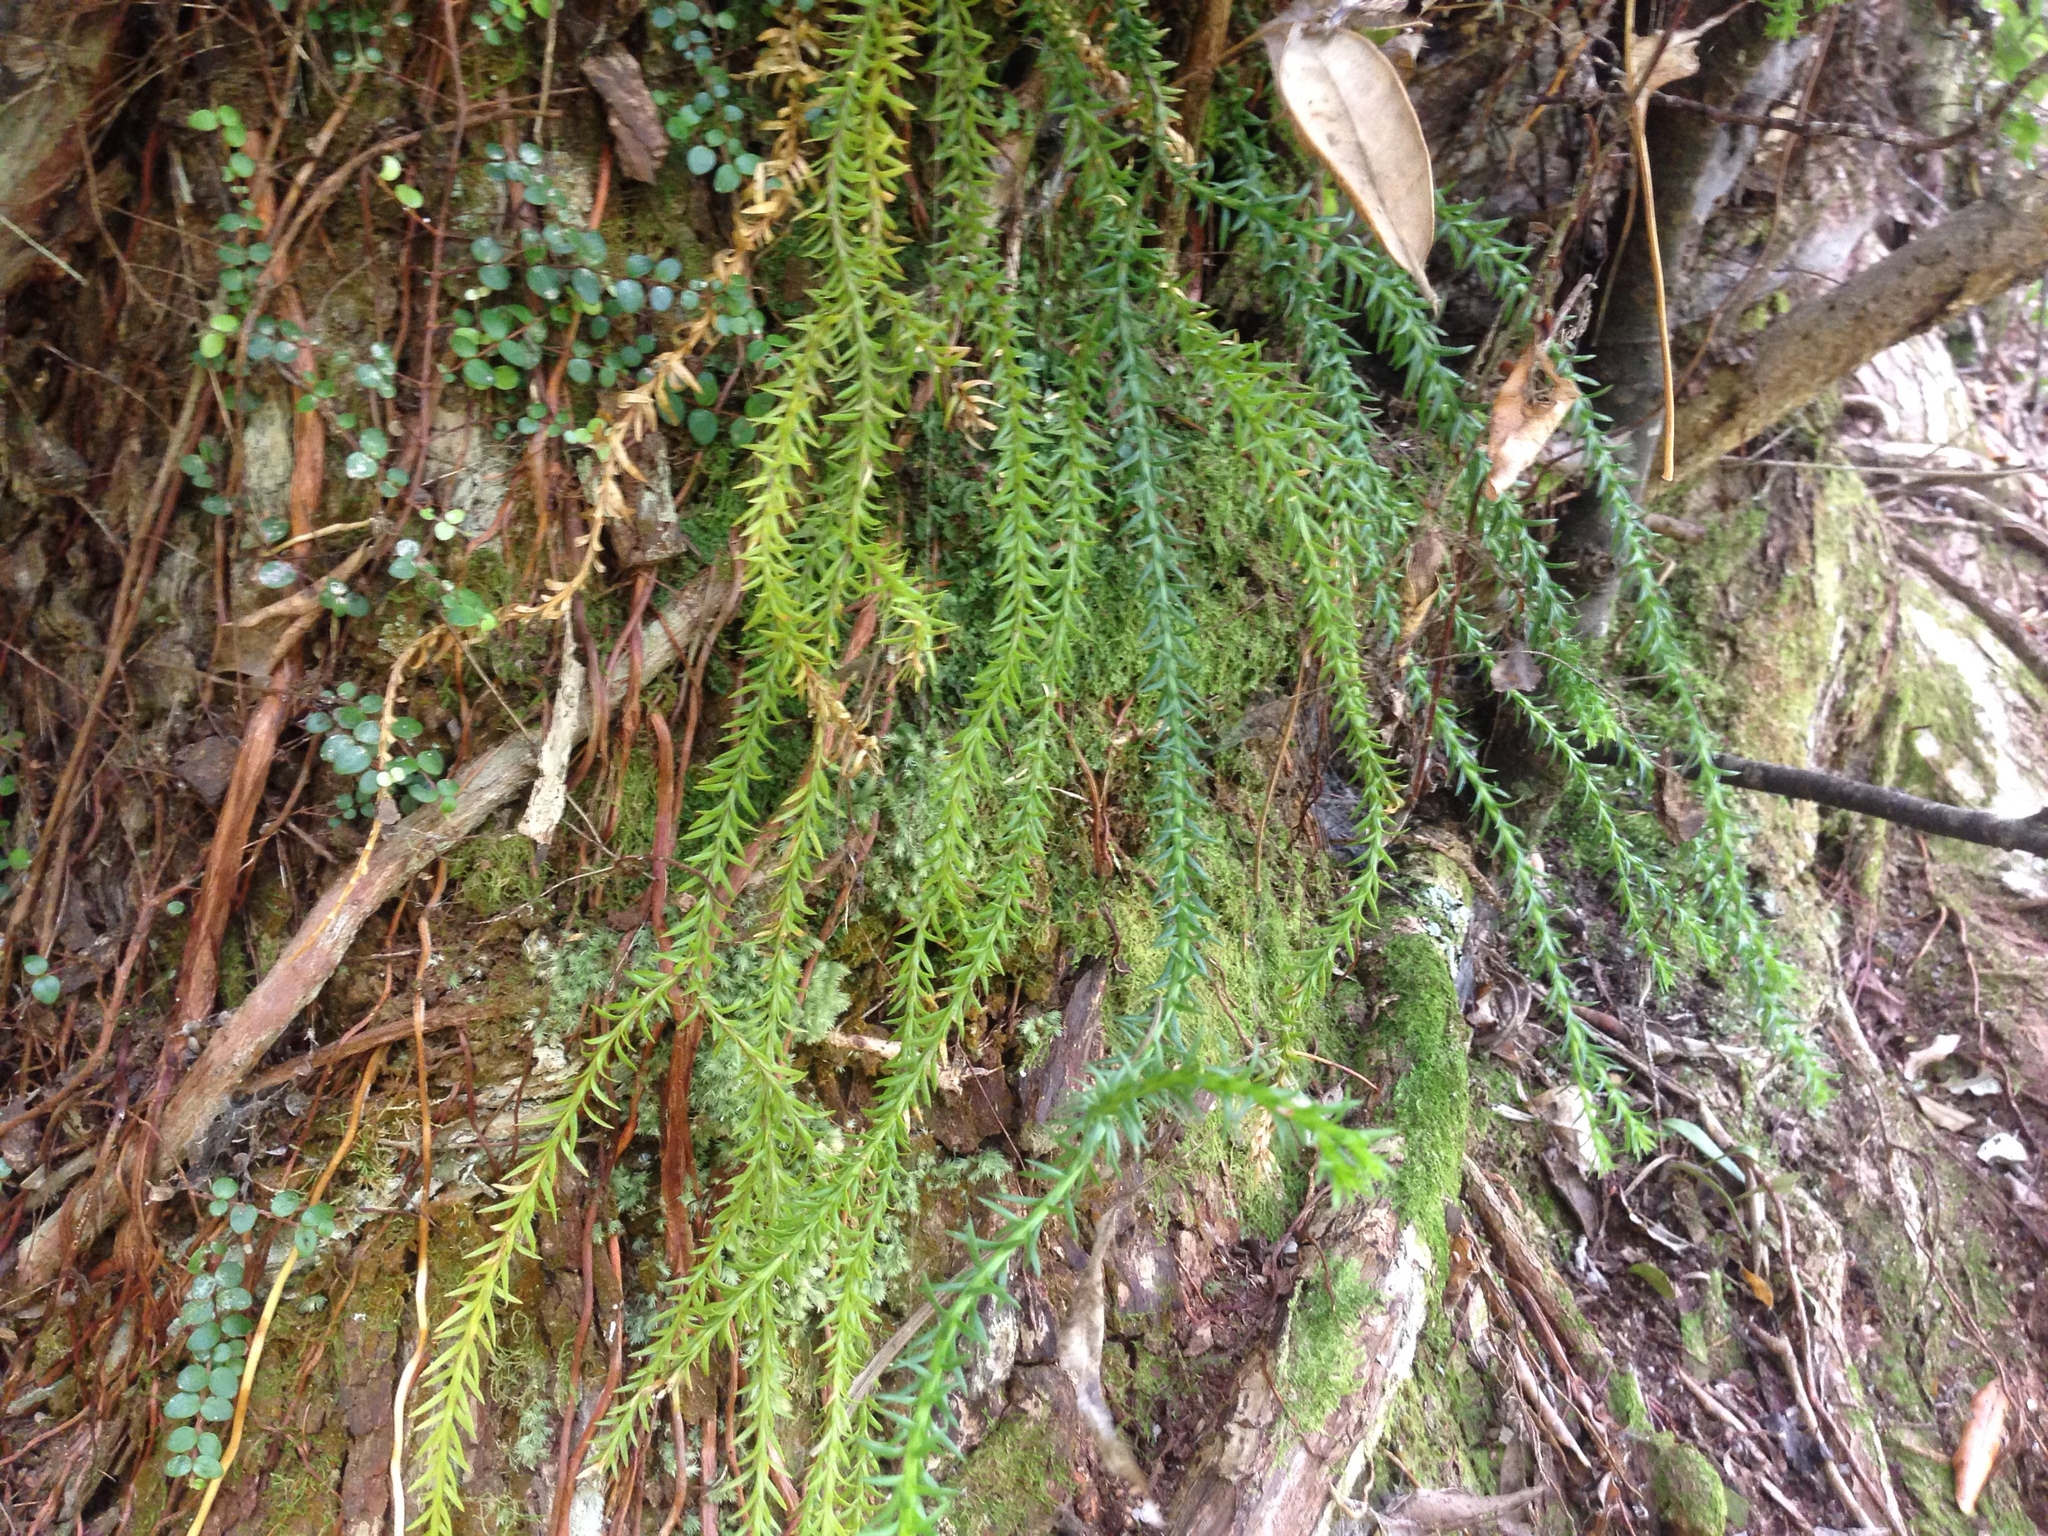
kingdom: Plantae
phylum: Tracheophyta
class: Lycopodiopsida
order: Lycopodiales
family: Lycopodiaceae
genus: Phlegmariurus
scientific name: Phlegmariurus varius
